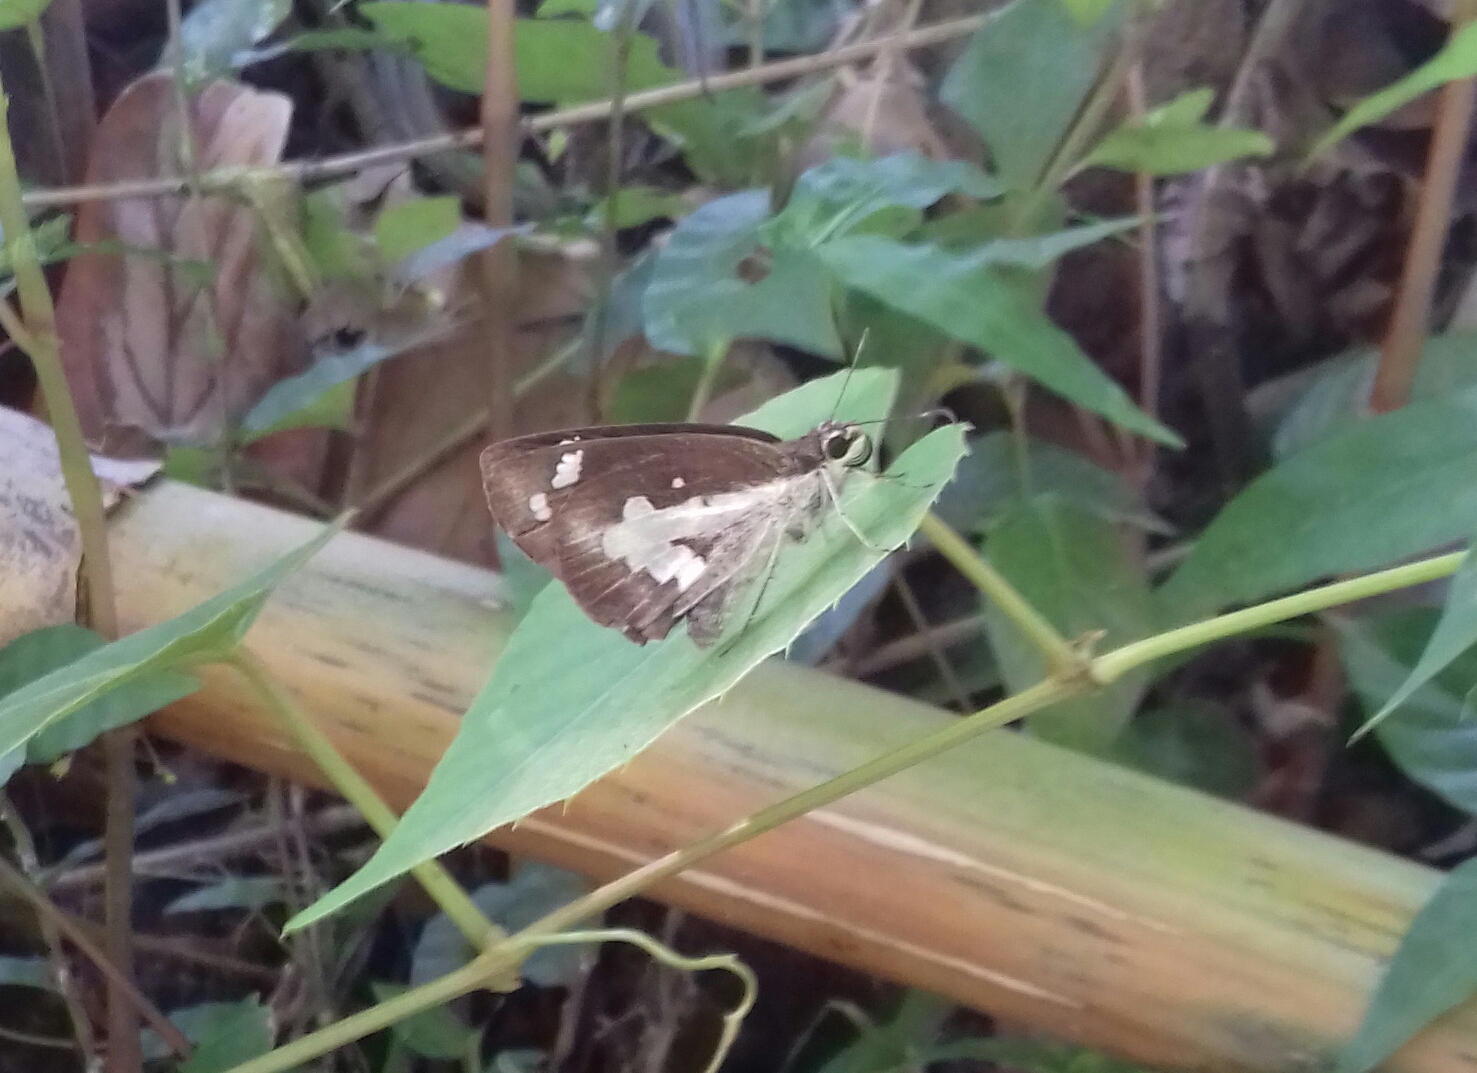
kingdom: Animalia
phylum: Arthropoda
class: Insecta
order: Lepidoptera
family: Hesperiidae
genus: Udaspes
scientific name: Udaspes folus
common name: Grass demon
